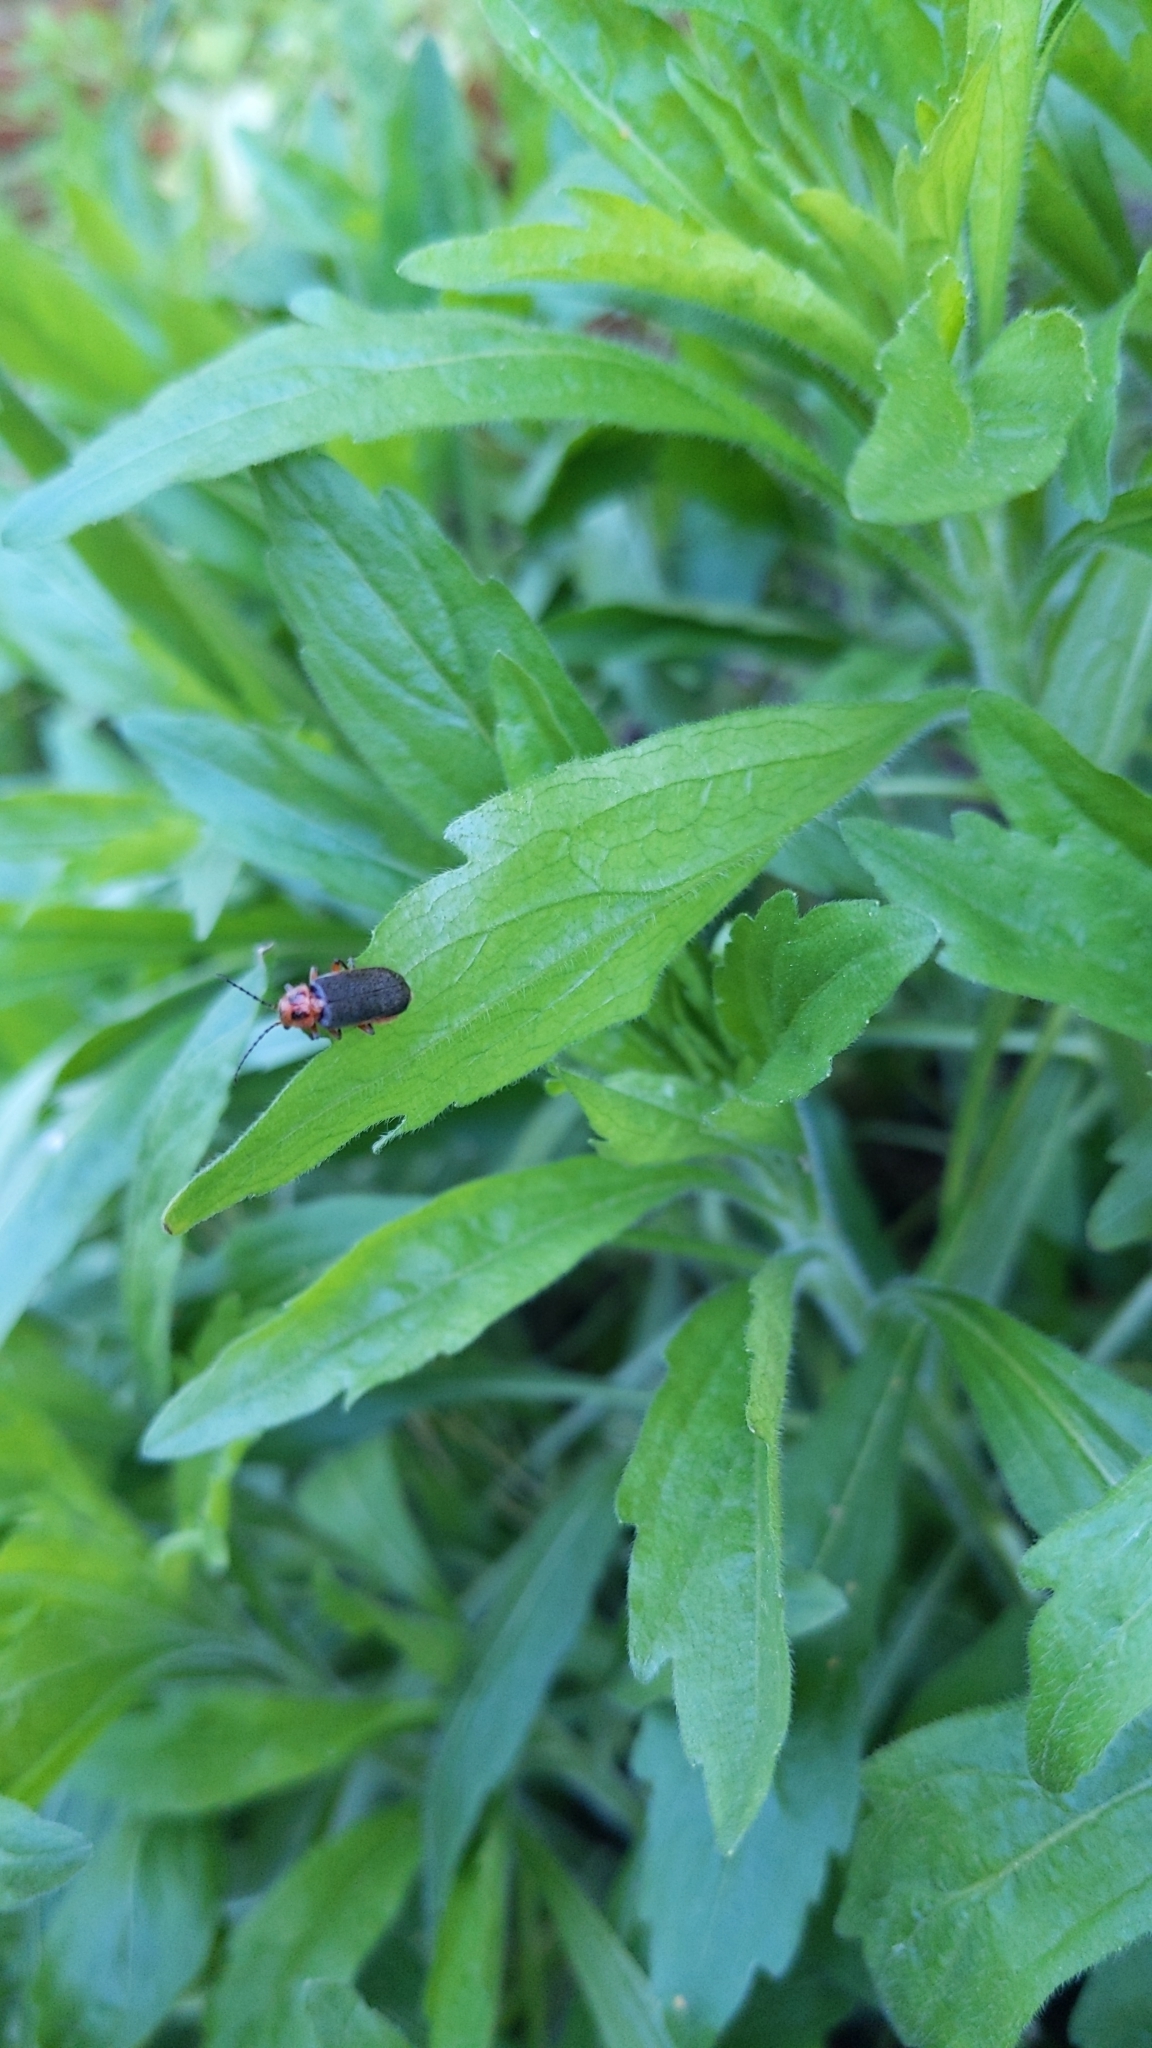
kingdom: Animalia
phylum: Arthropoda
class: Insecta
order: Coleoptera
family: Cantharidae
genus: Atalantycha
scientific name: Atalantycha bilineata
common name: Two-lined leatherwing
